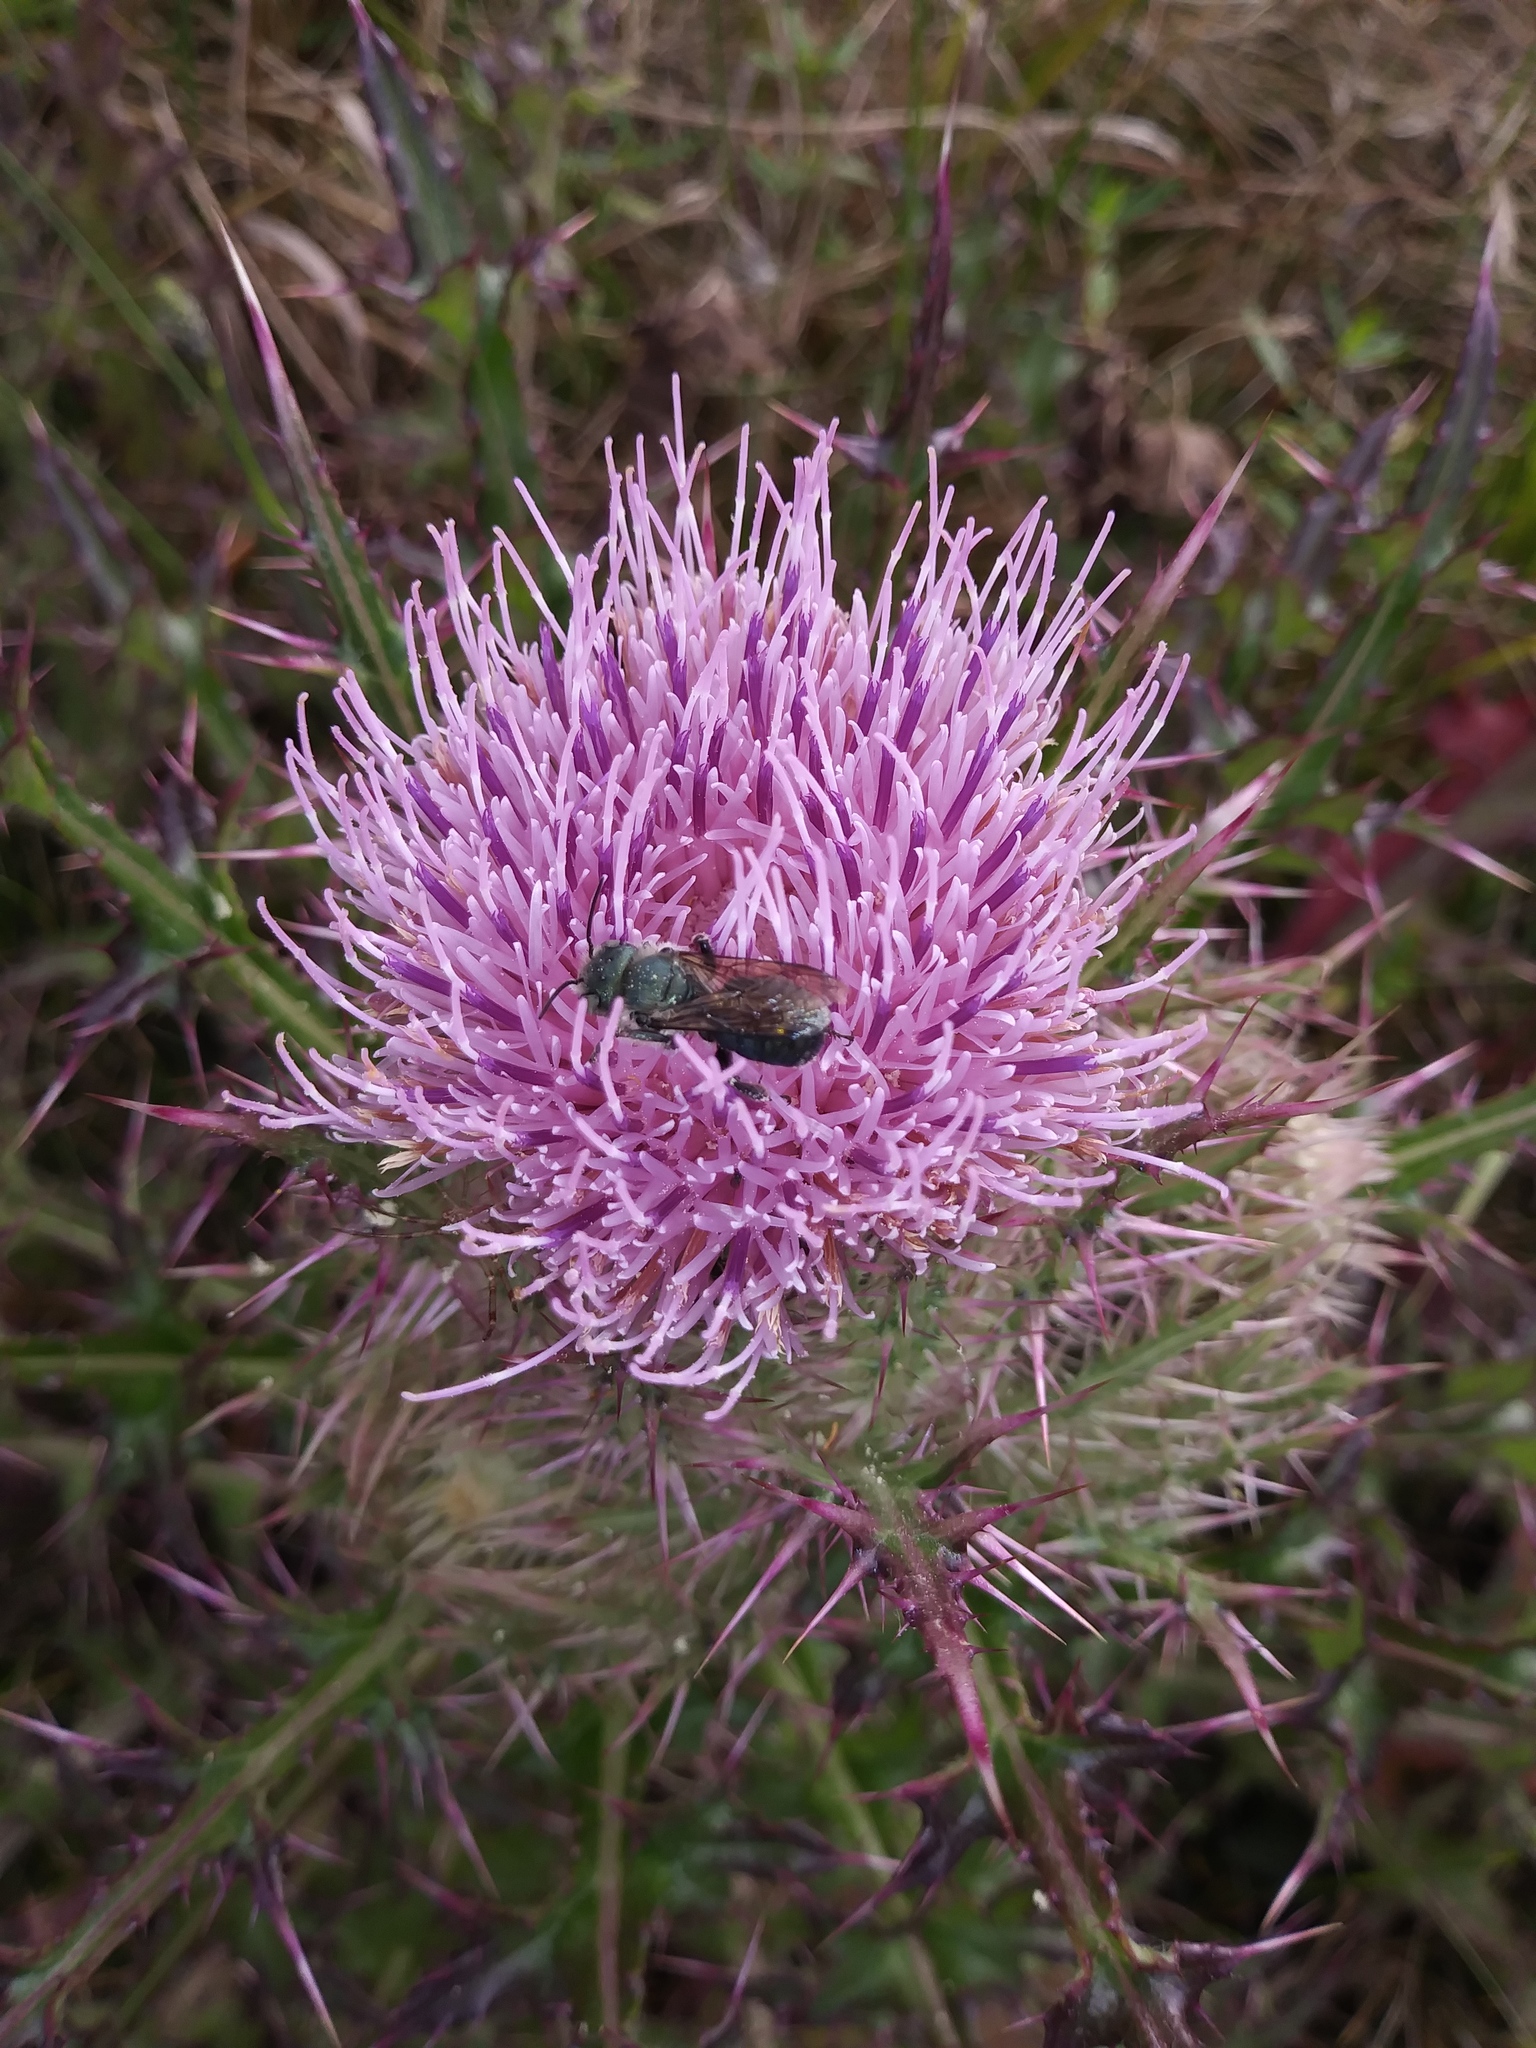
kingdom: Plantae
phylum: Tracheophyta
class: Magnoliopsida
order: Asterales
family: Asteraceae
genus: Cirsium
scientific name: Cirsium horridulum
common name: Bristly thistle
